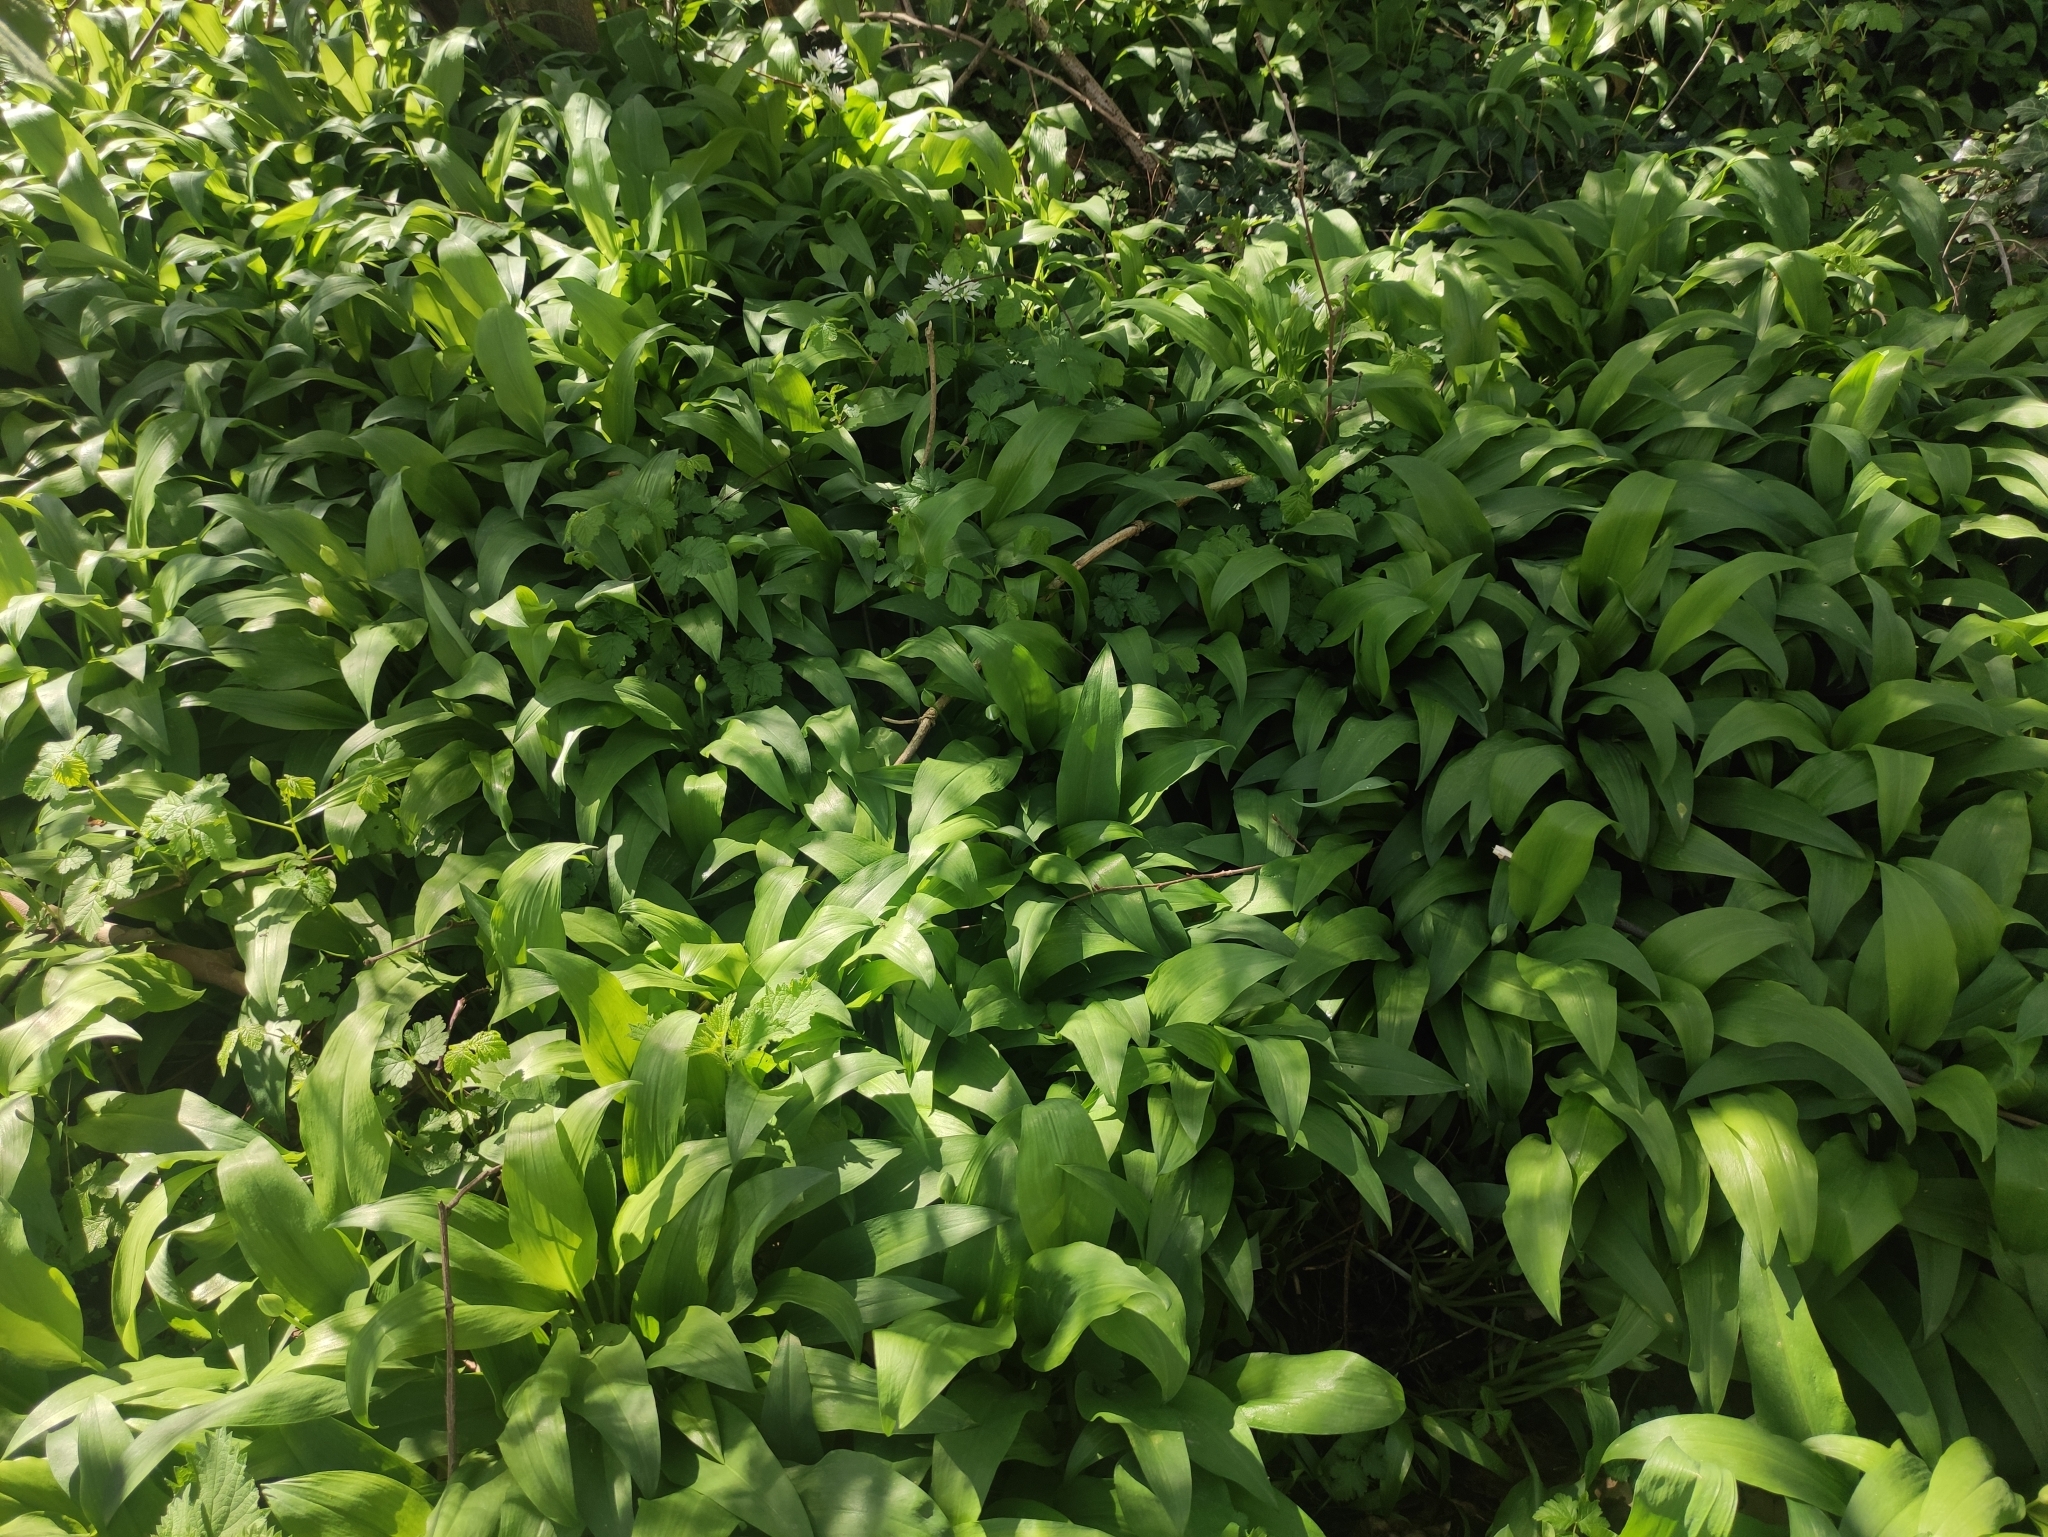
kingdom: Plantae
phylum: Tracheophyta
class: Liliopsida
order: Asparagales
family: Amaryllidaceae
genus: Allium
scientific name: Allium ursinum
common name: Ramsons
